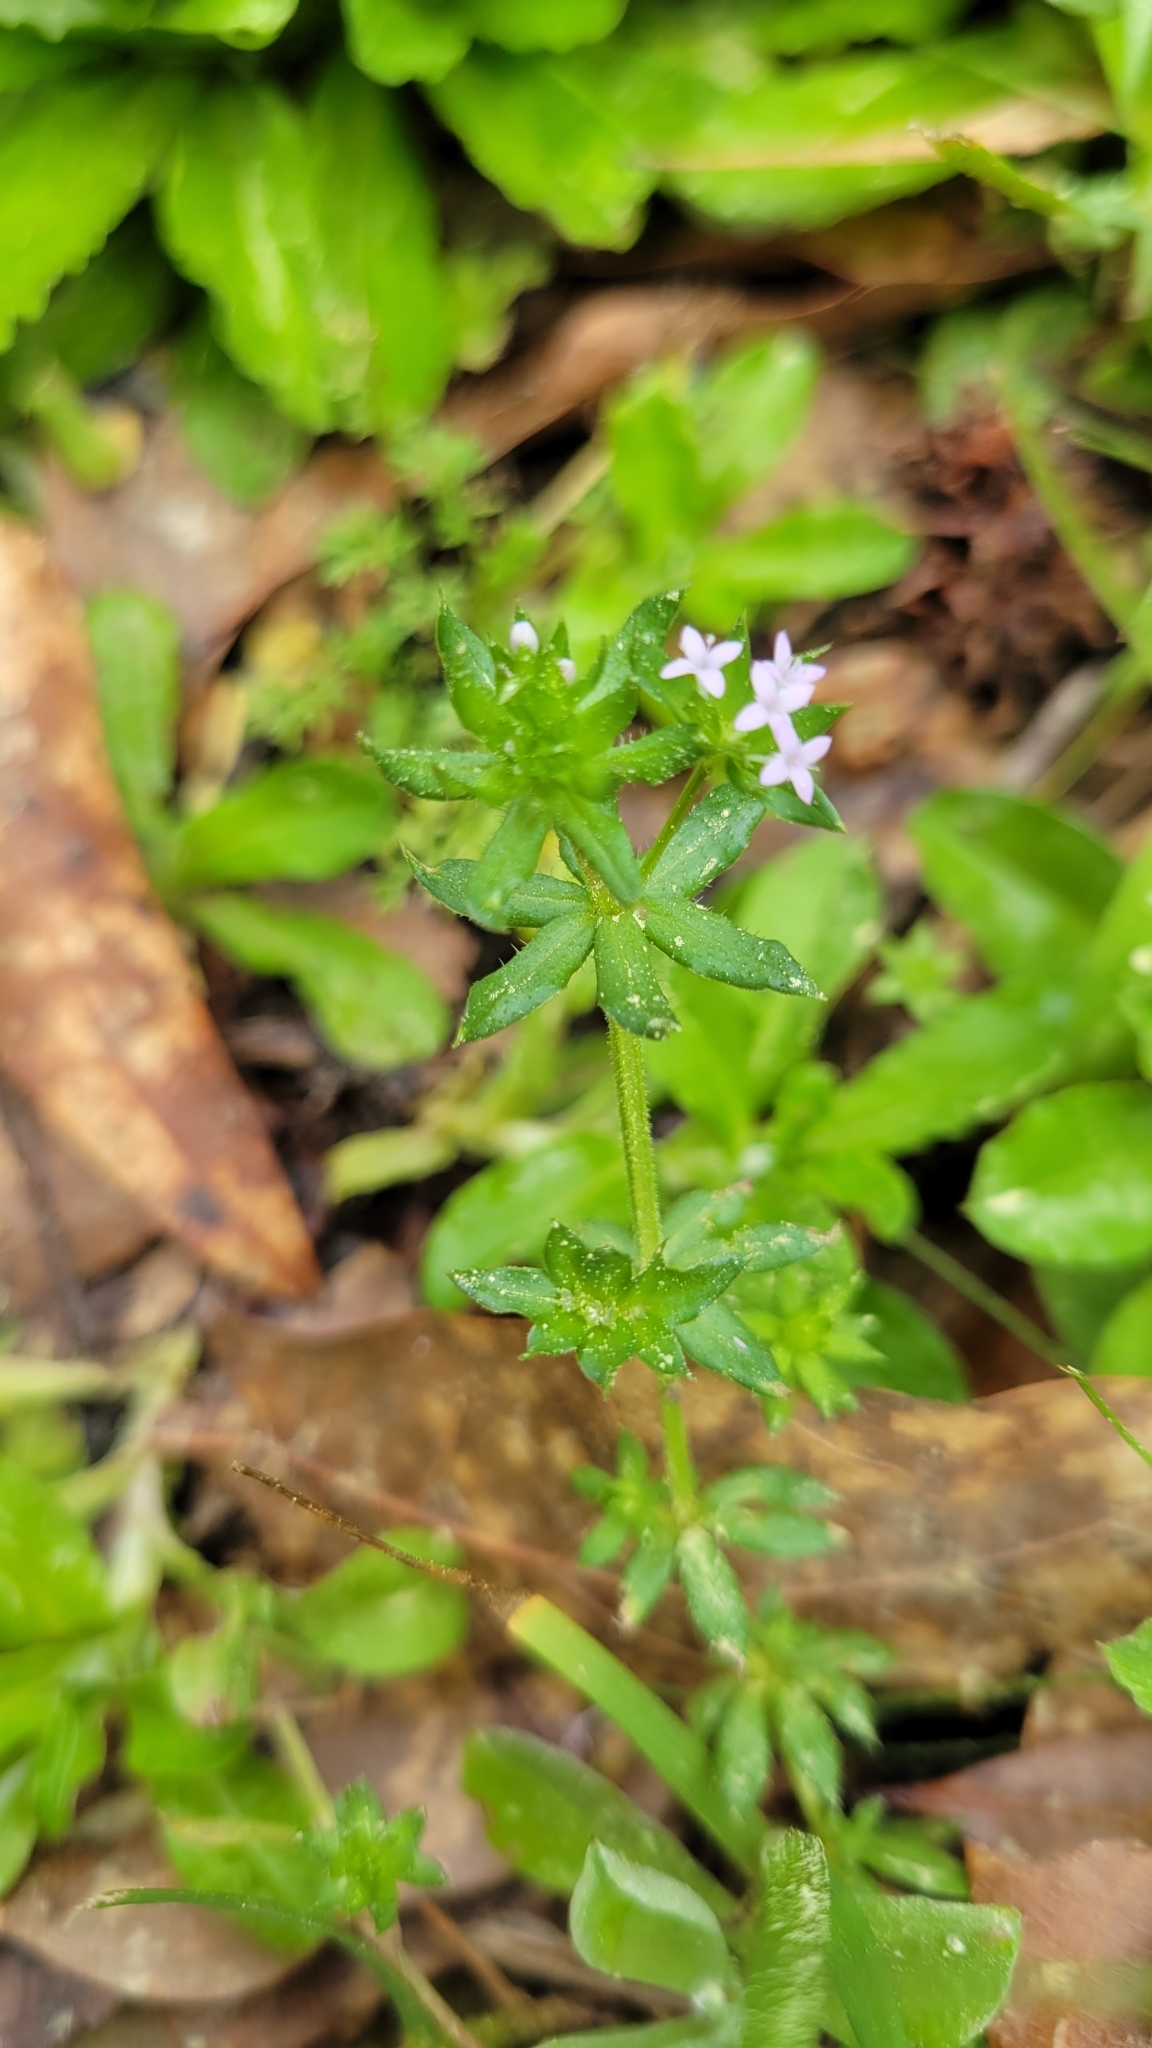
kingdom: Plantae
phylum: Tracheophyta
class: Magnoliopsida
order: Gentianales
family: Rubiaceae
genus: Sherardia
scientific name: Sherardia arvensis
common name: Field madder
